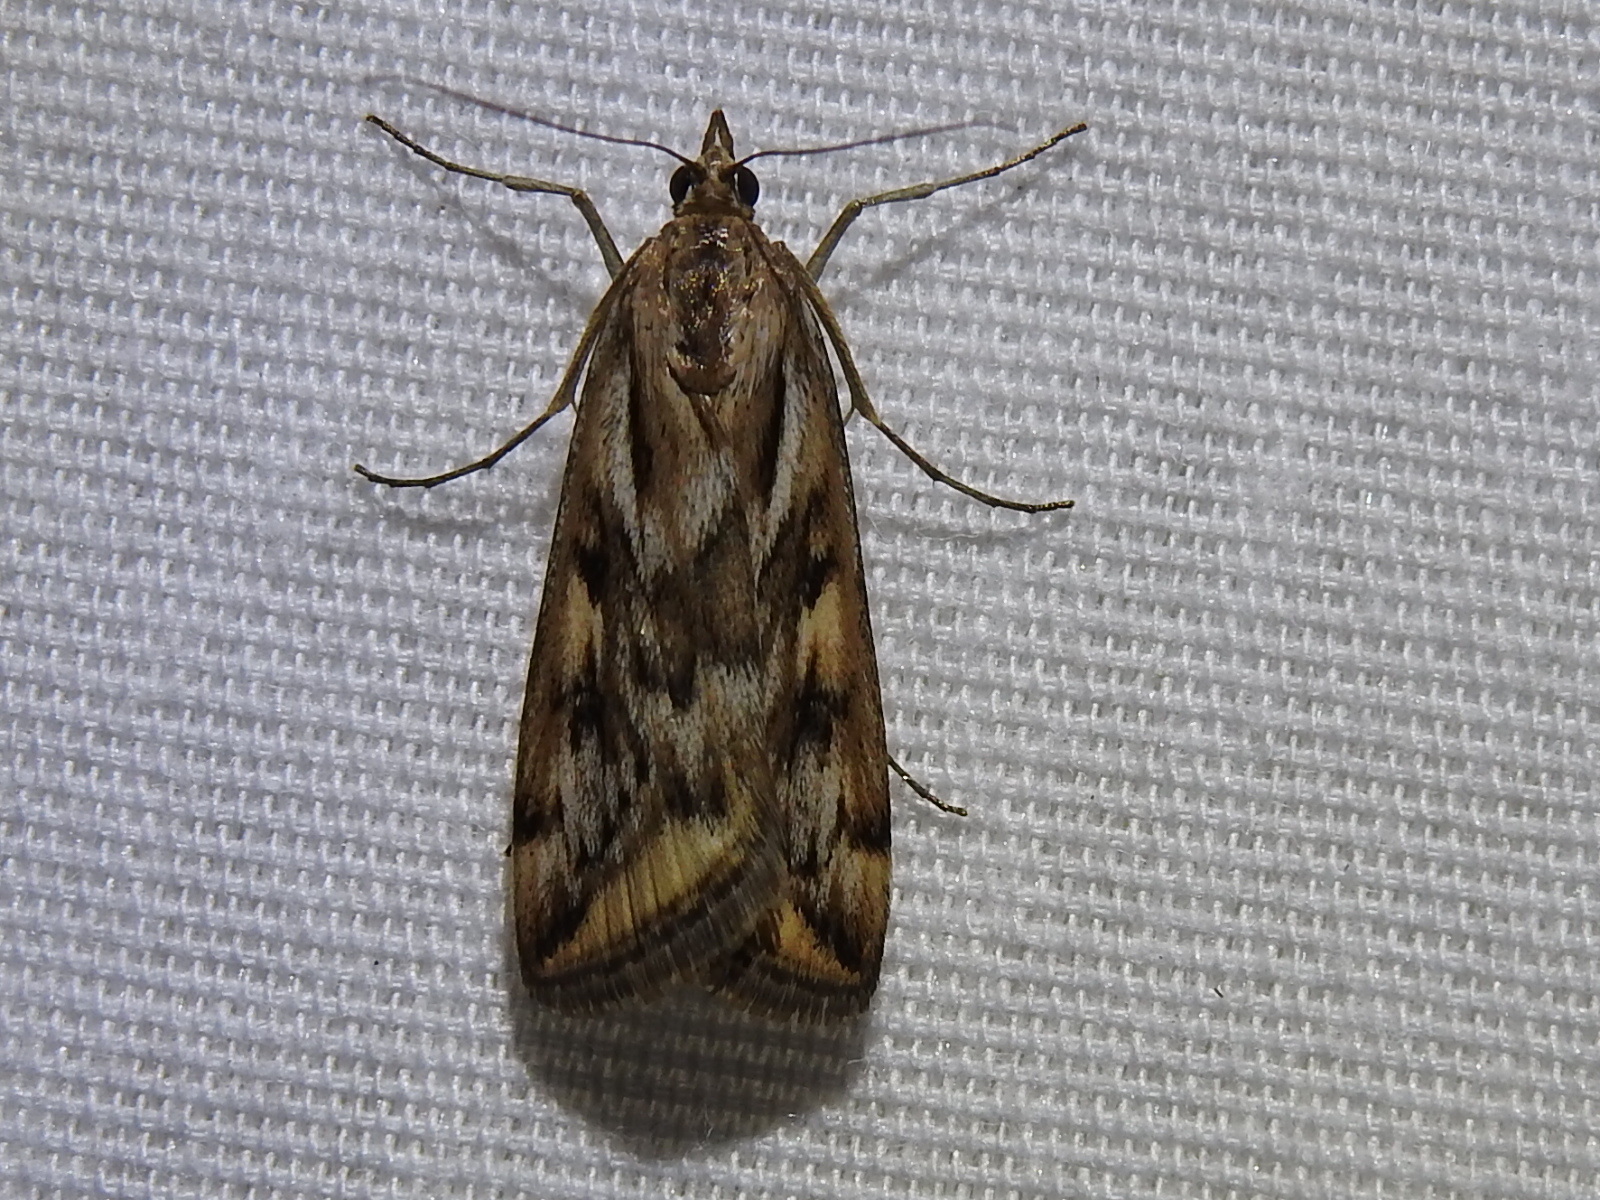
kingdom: Animalia
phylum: Arthropoda
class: Insecta
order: Lepidoptera
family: Crambidae
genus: Loxostege
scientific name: Loxostege cereralis
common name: Alfalfa webworm moth
